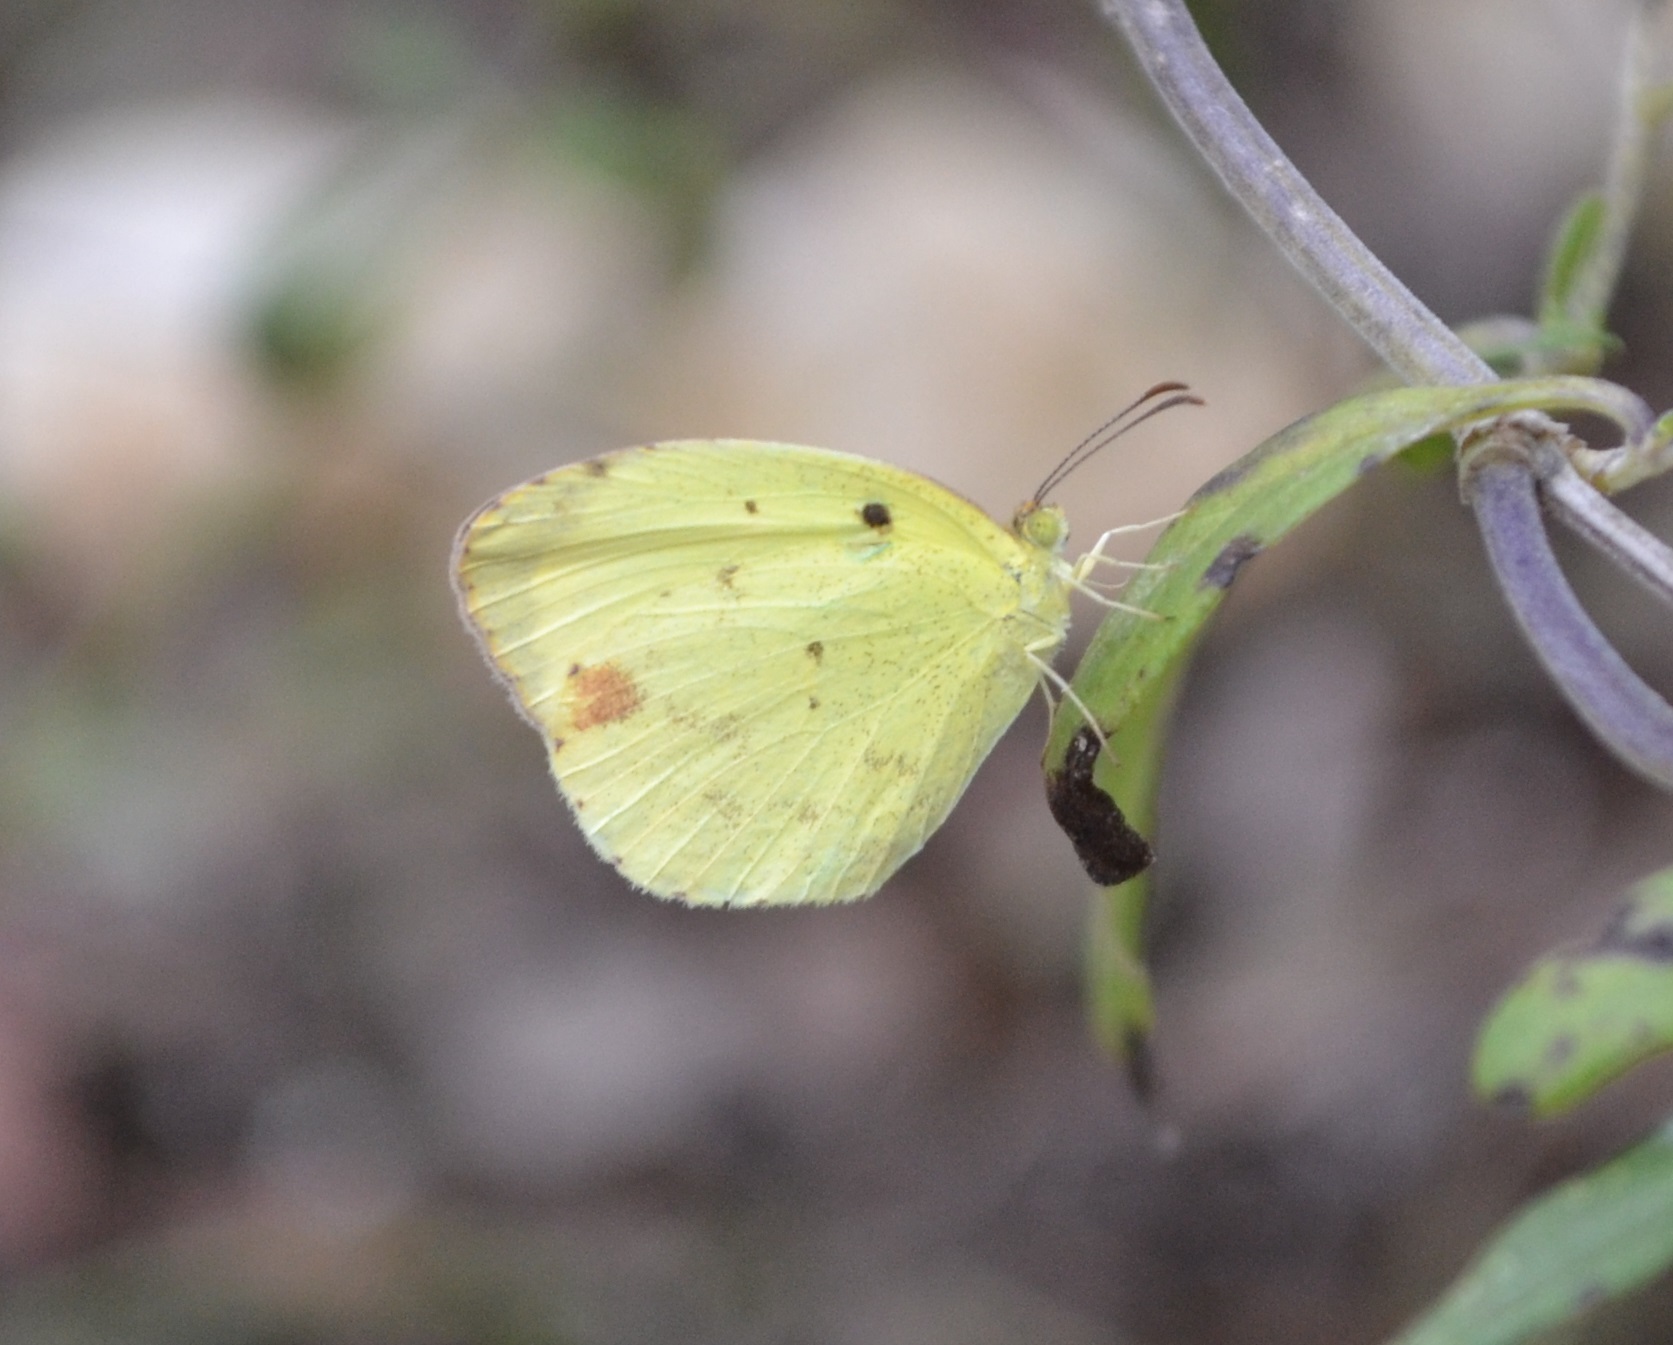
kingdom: Animalia
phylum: Arthropoda
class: Insecta
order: Lepidoptera
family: Pieridae
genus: Pyrisitia
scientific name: Pyrisitia nise
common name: Mimosa yellow
